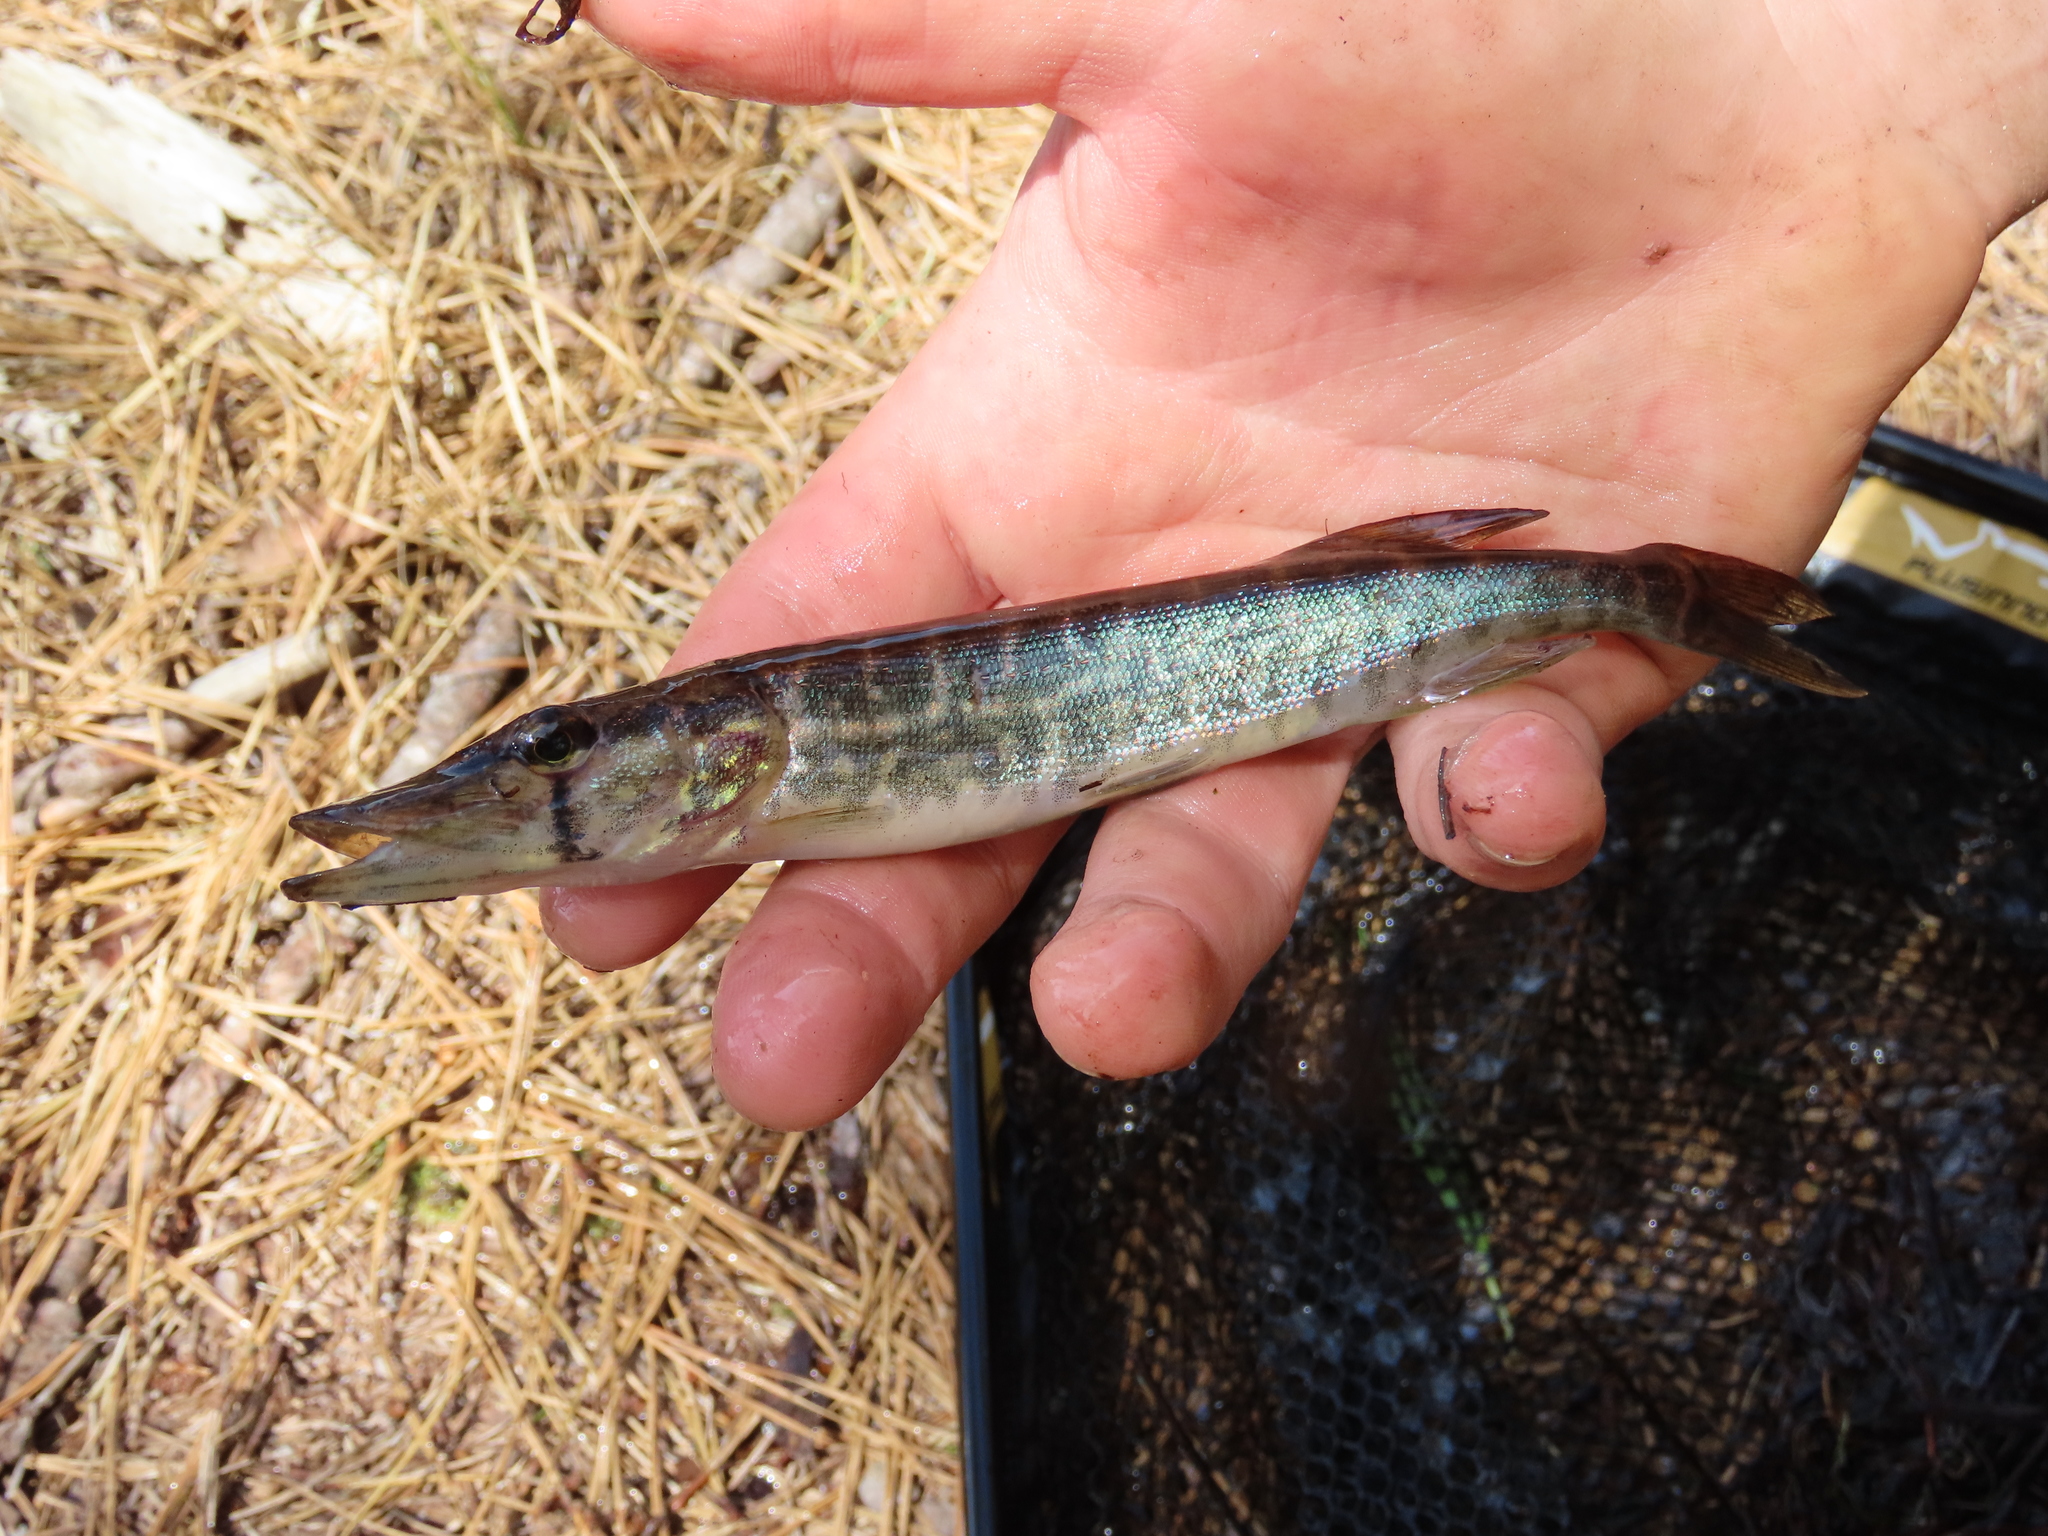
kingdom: Animalia
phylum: Chordata
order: Esociformes
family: Esocidae
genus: Esox
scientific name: Esox niger
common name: Chain pickerel
